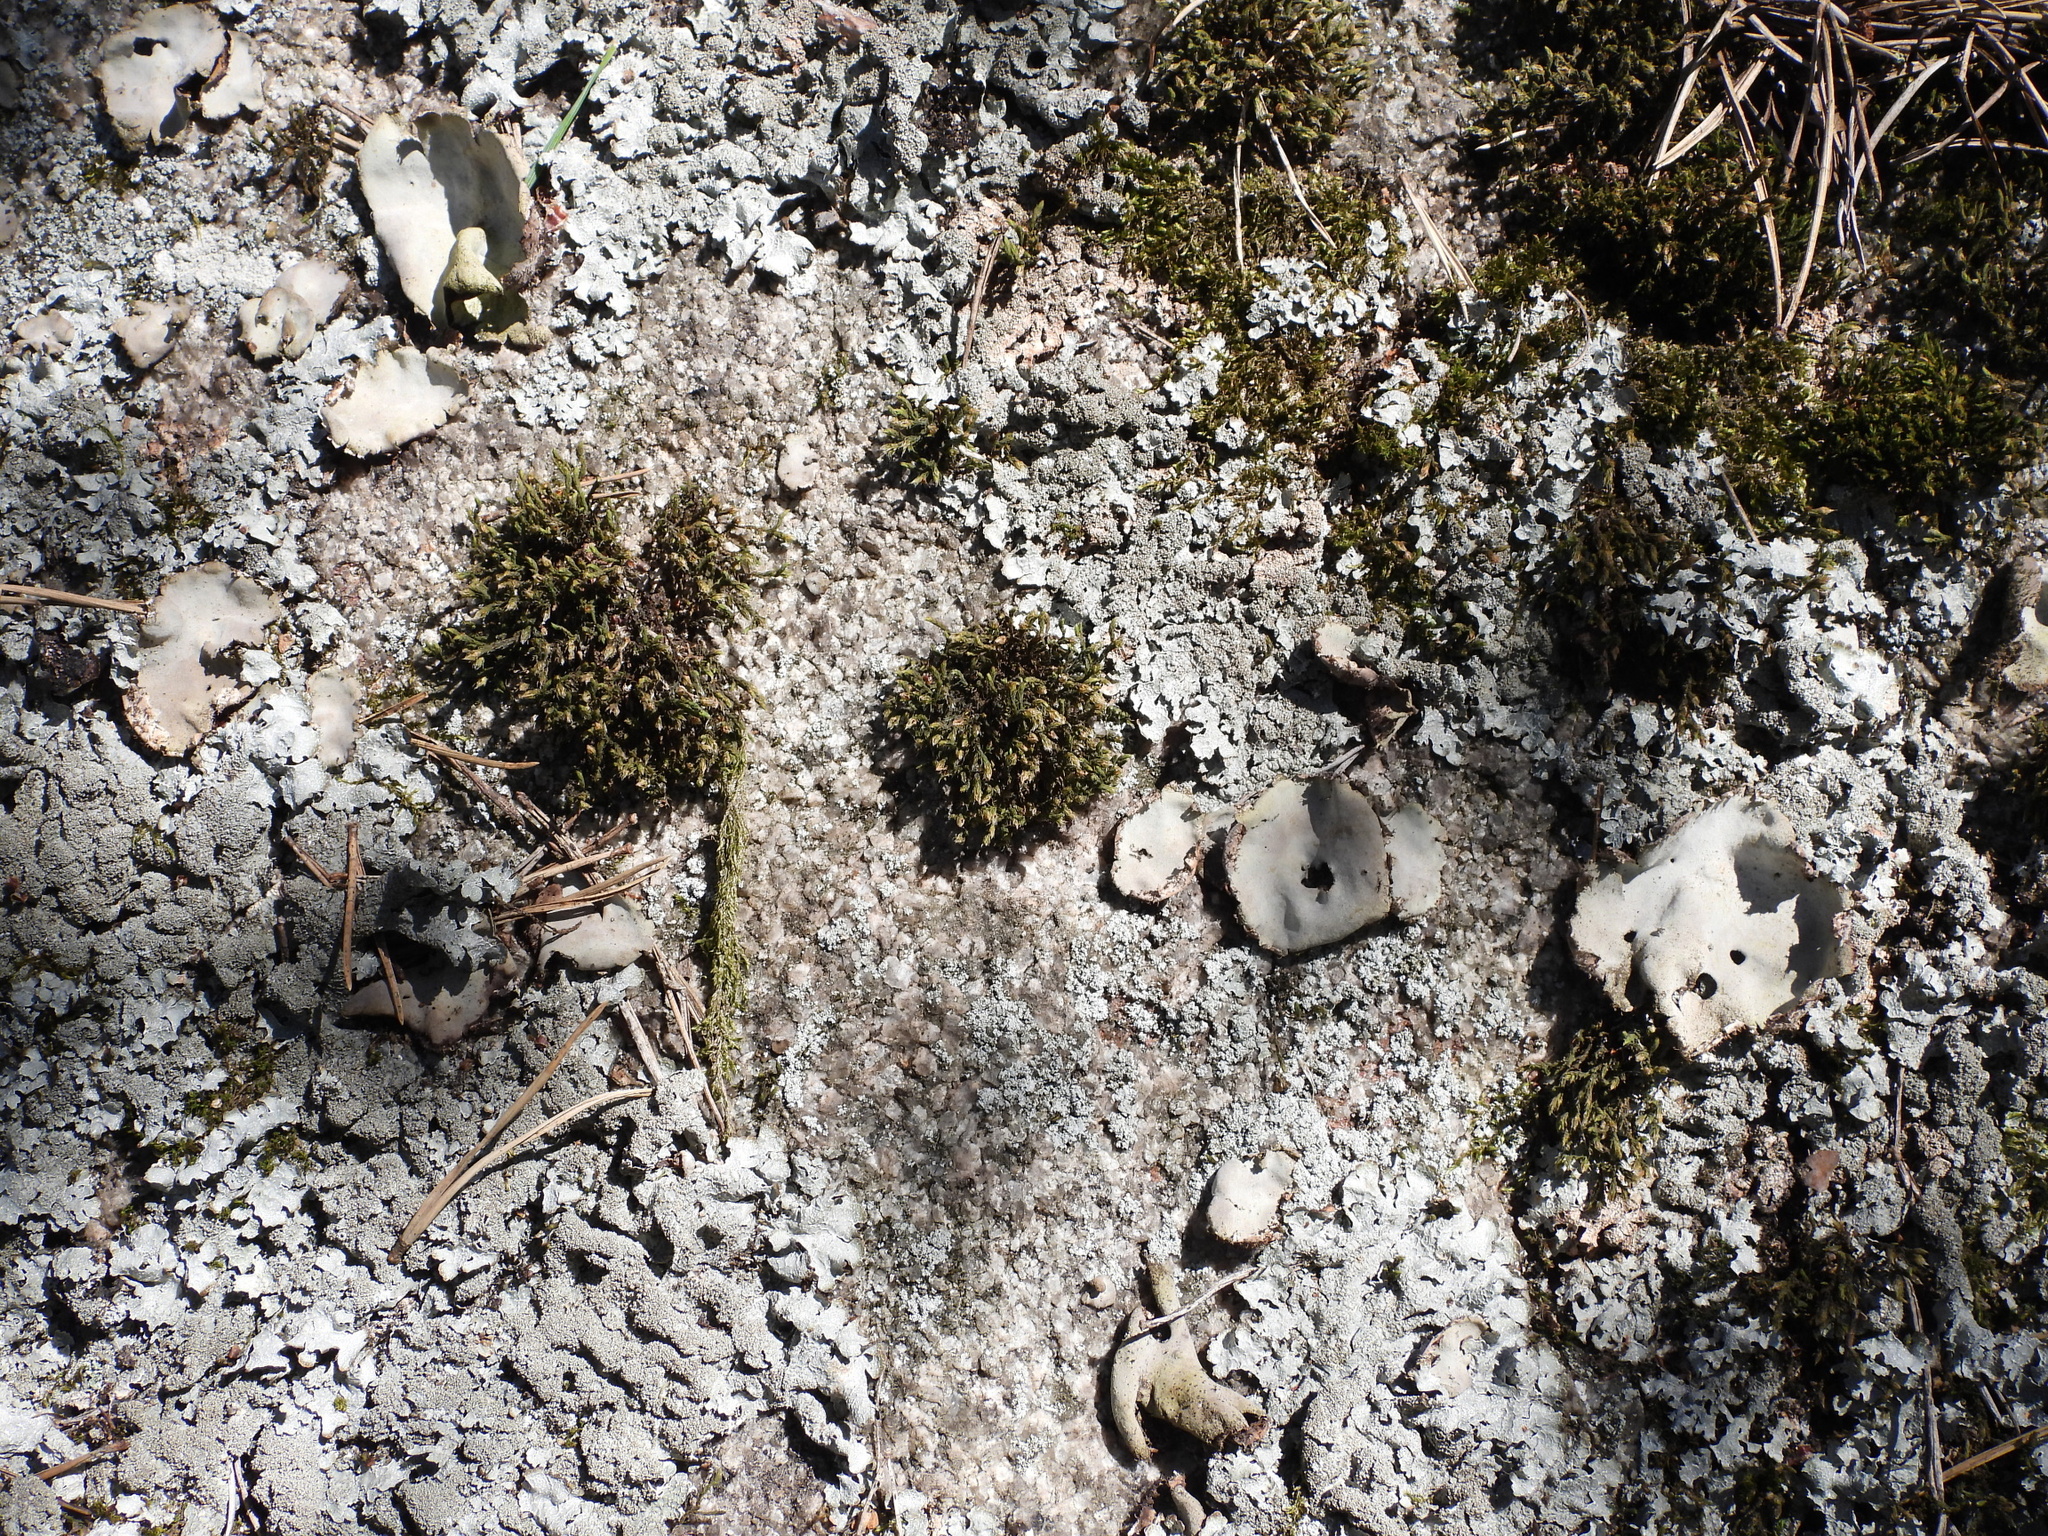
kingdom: Fungi
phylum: Ascomycota
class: Lecanoromycetes
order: Umbilicariales
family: Umbilicariaceae
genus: Umbilicaria
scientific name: Umbilicaria hirsuta
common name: Granulating rocktripe lichen
